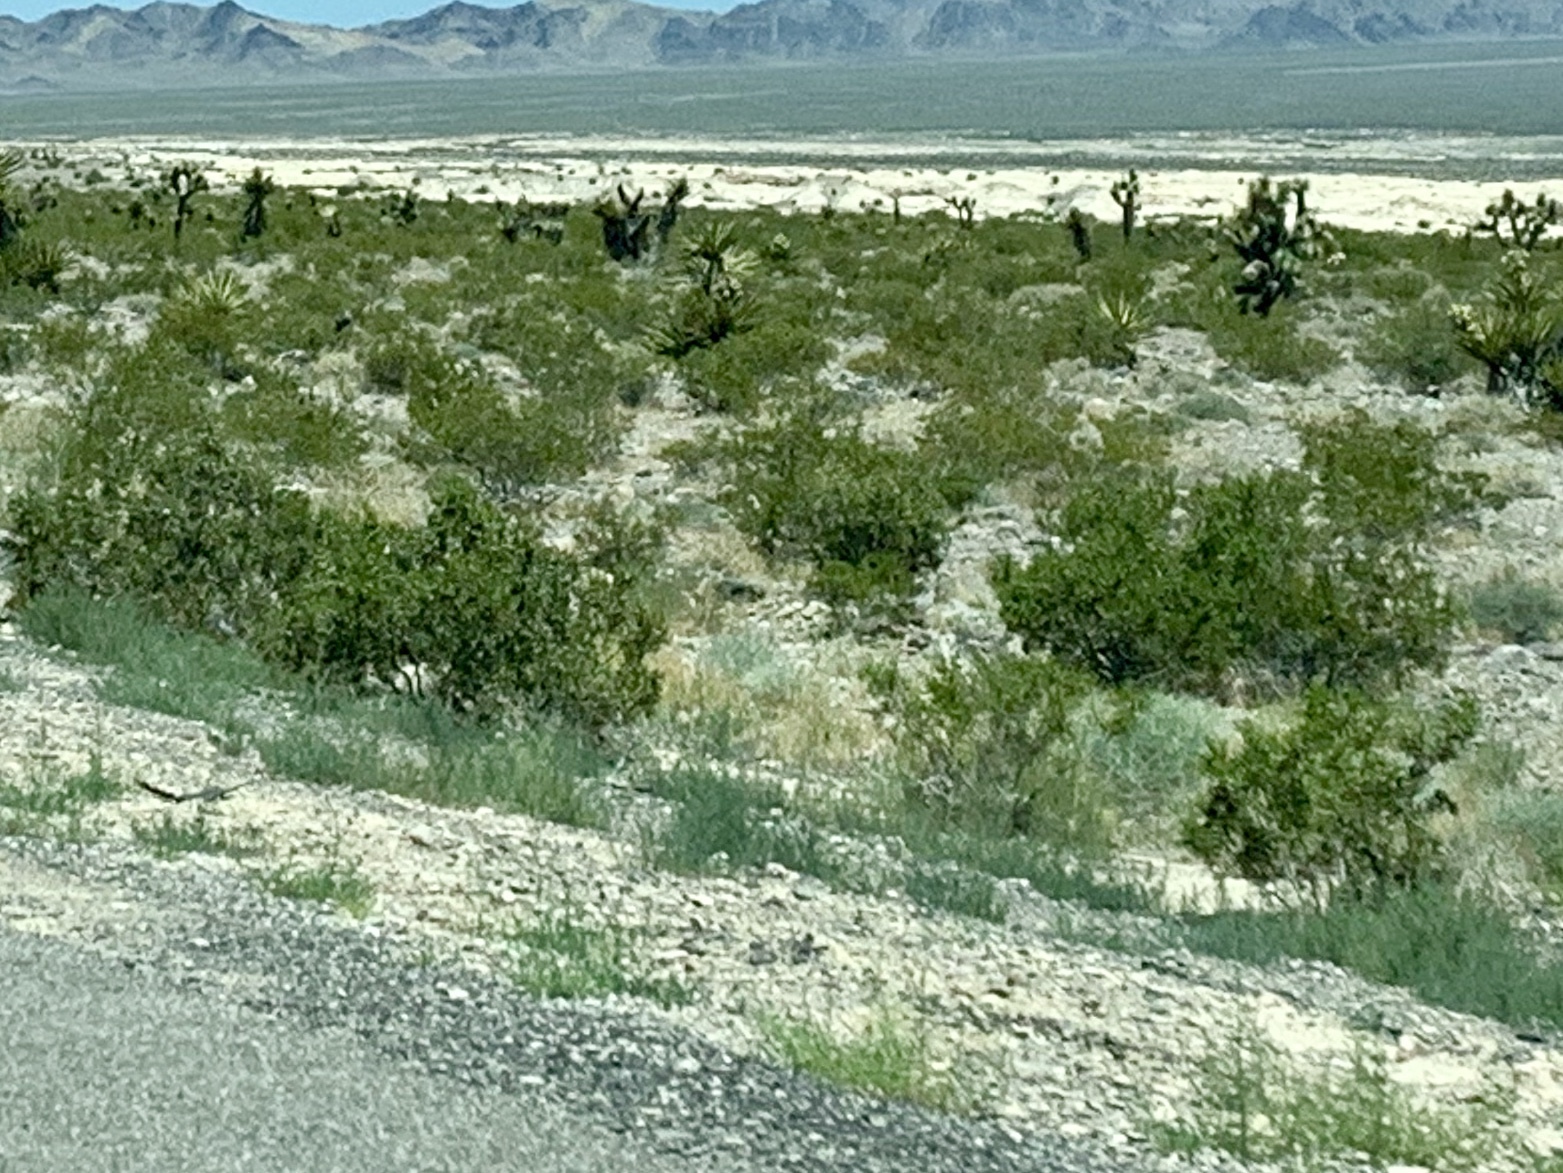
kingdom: Plantae
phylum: Tracheophyta
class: Magnoliopsida
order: Zygophyllales
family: Zygophyllaceae
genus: Larrea
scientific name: Larrea tridentata
